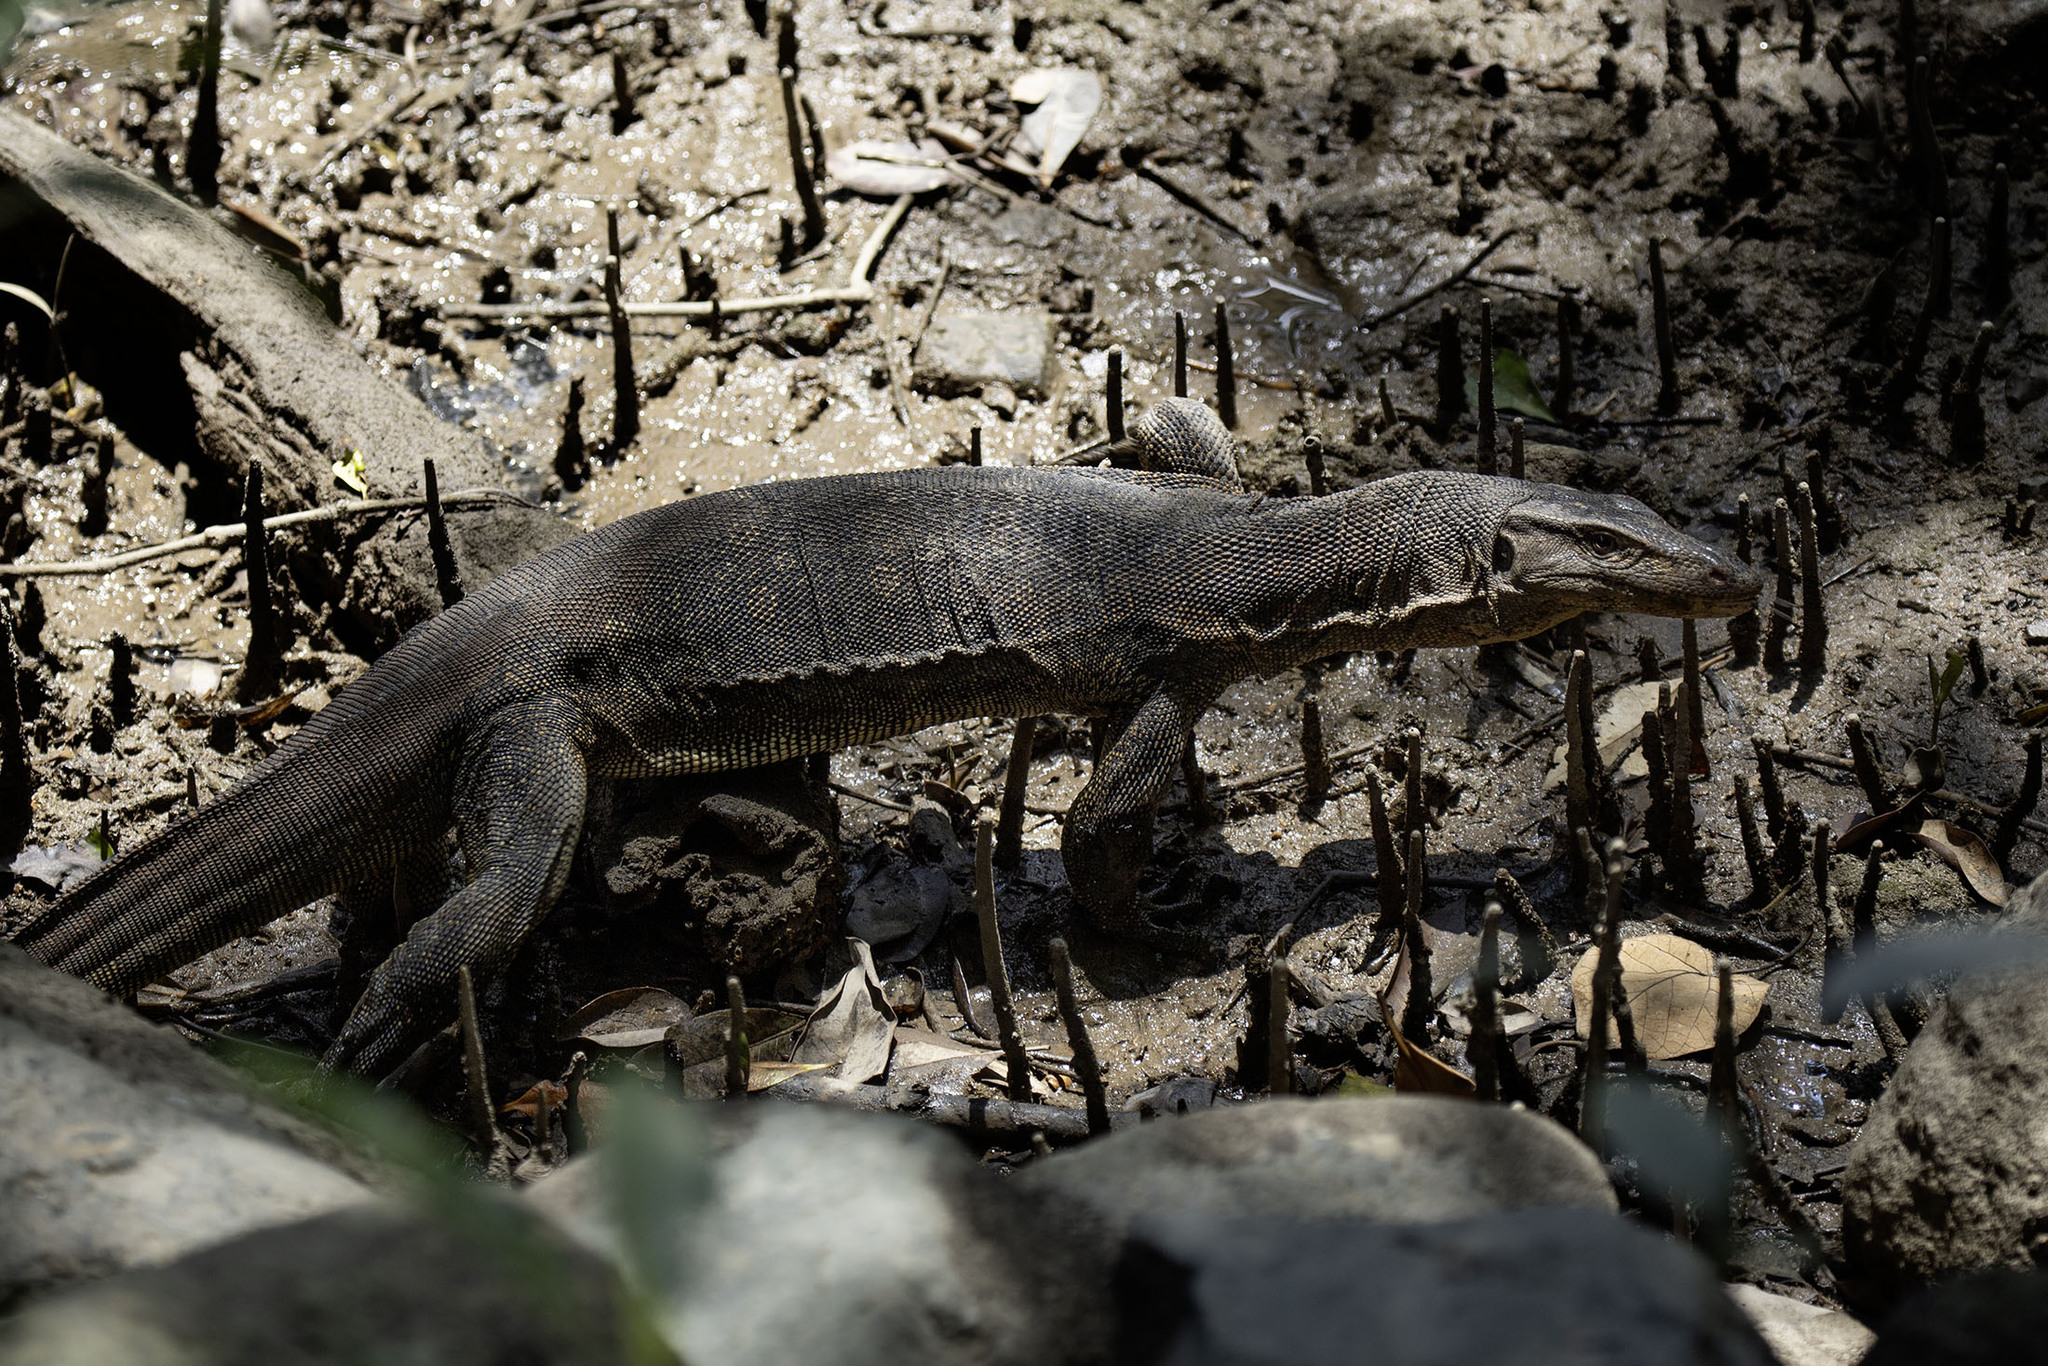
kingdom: Animalia
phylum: Chordata
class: Squamata
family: Varanidae
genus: Varanus
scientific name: Varanus salvator
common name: Common water monitor
